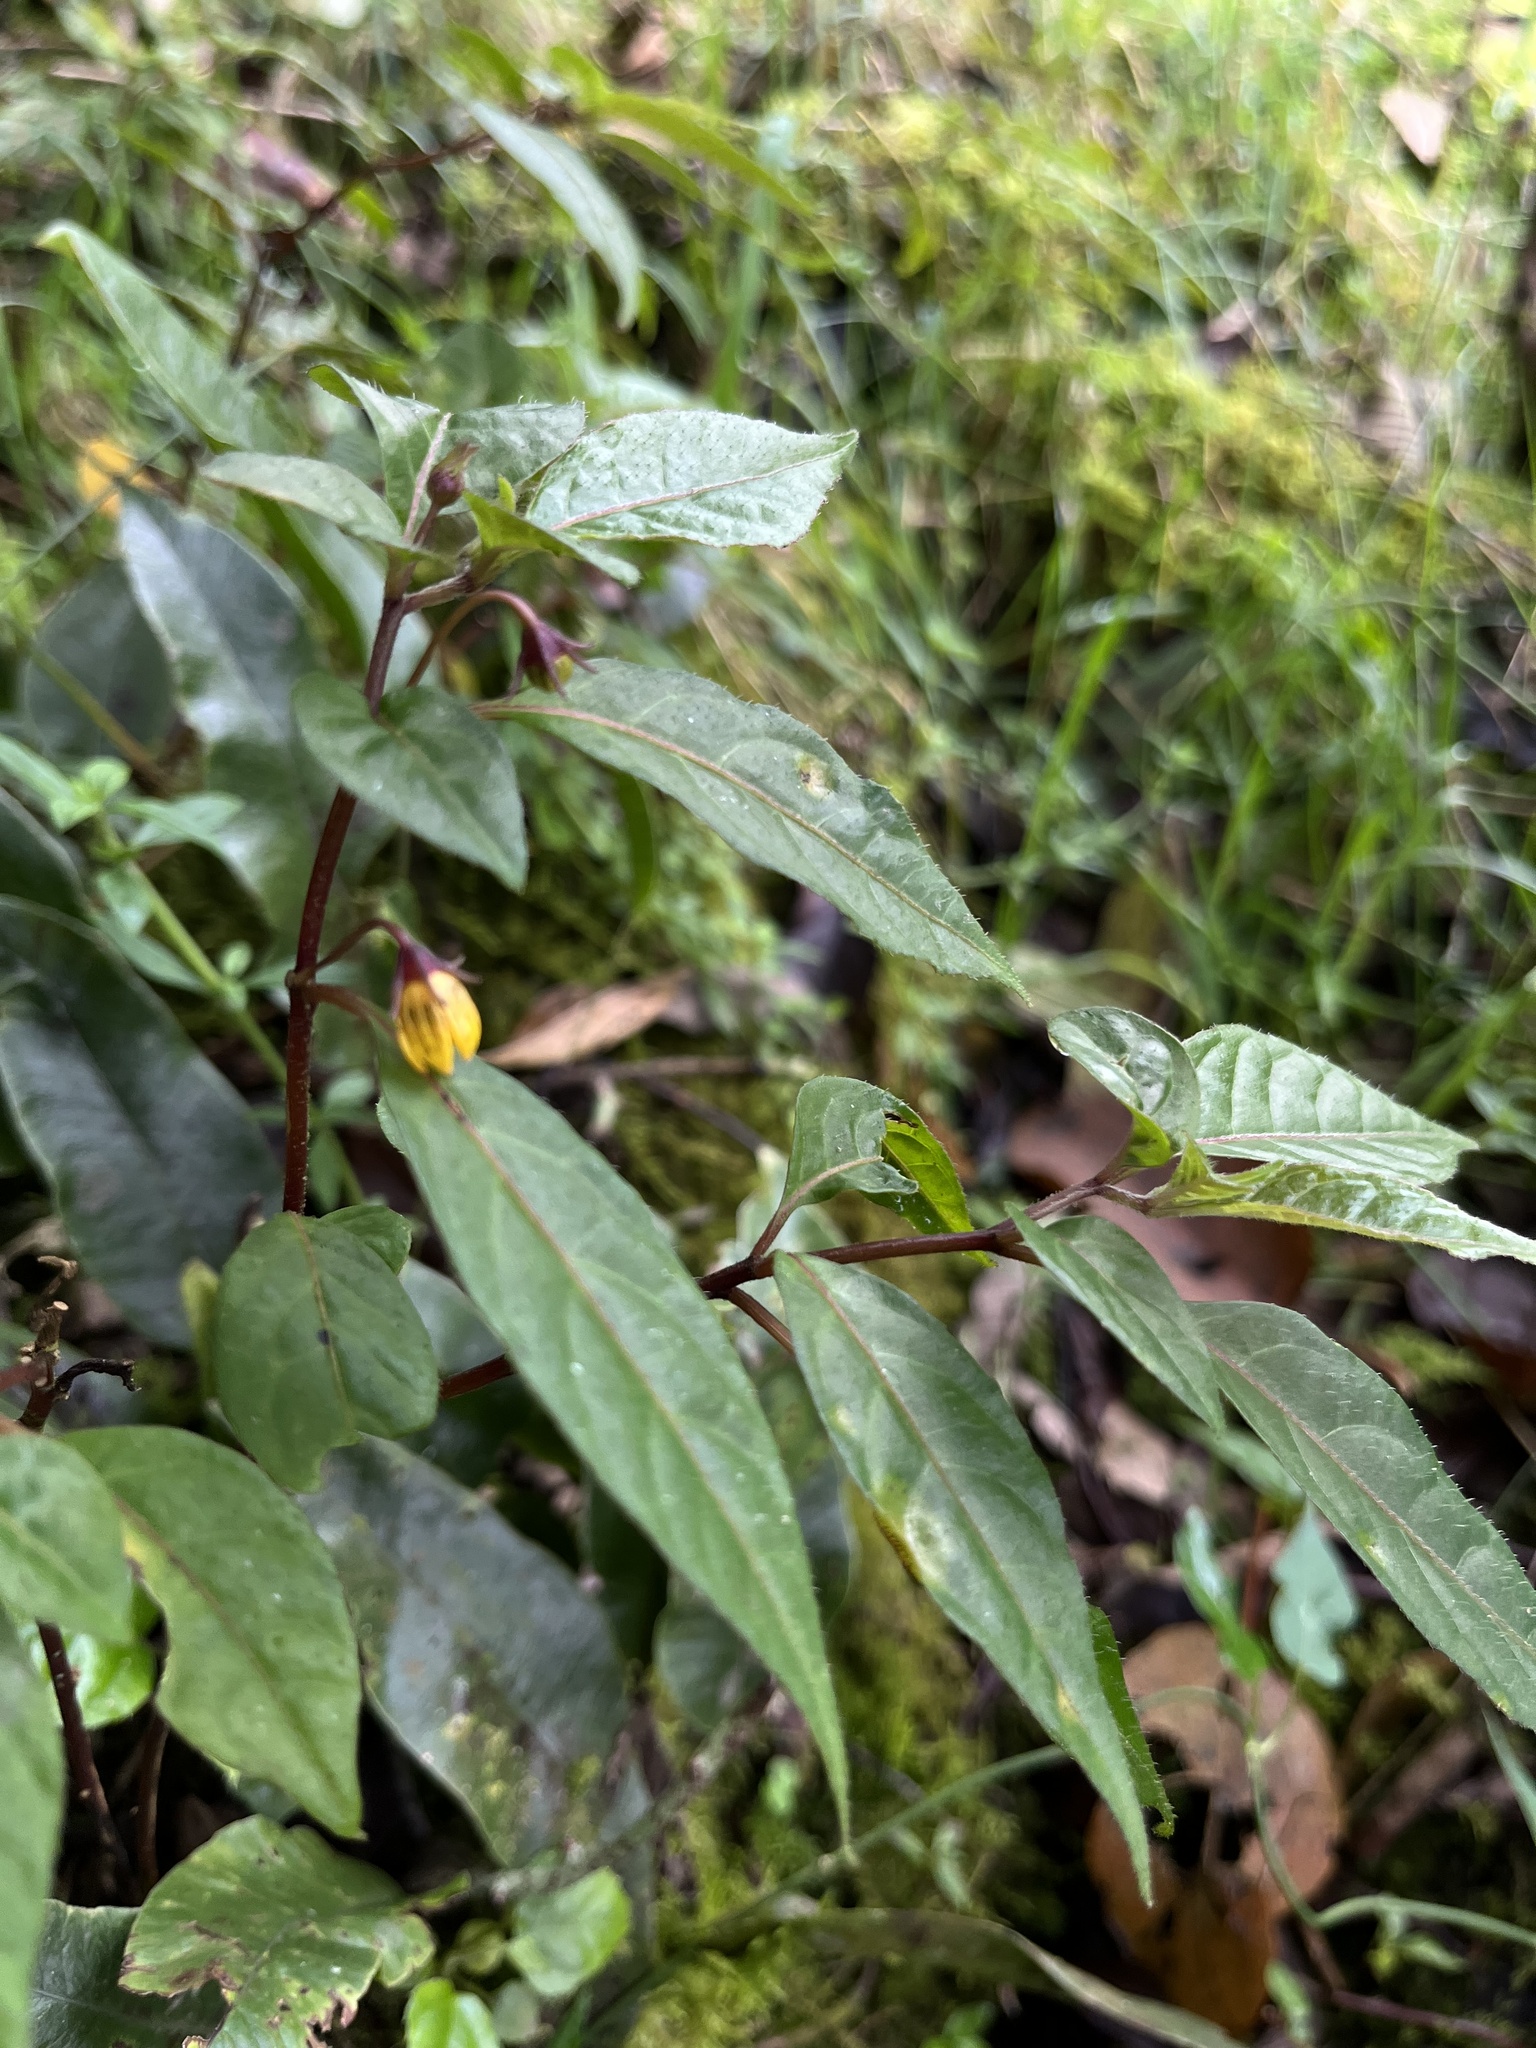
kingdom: Plantae
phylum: Tracheophyta
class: Magnoliopsida
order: Solanales
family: Solanaceae
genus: Capsicum
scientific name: Capsicum geminifolium
